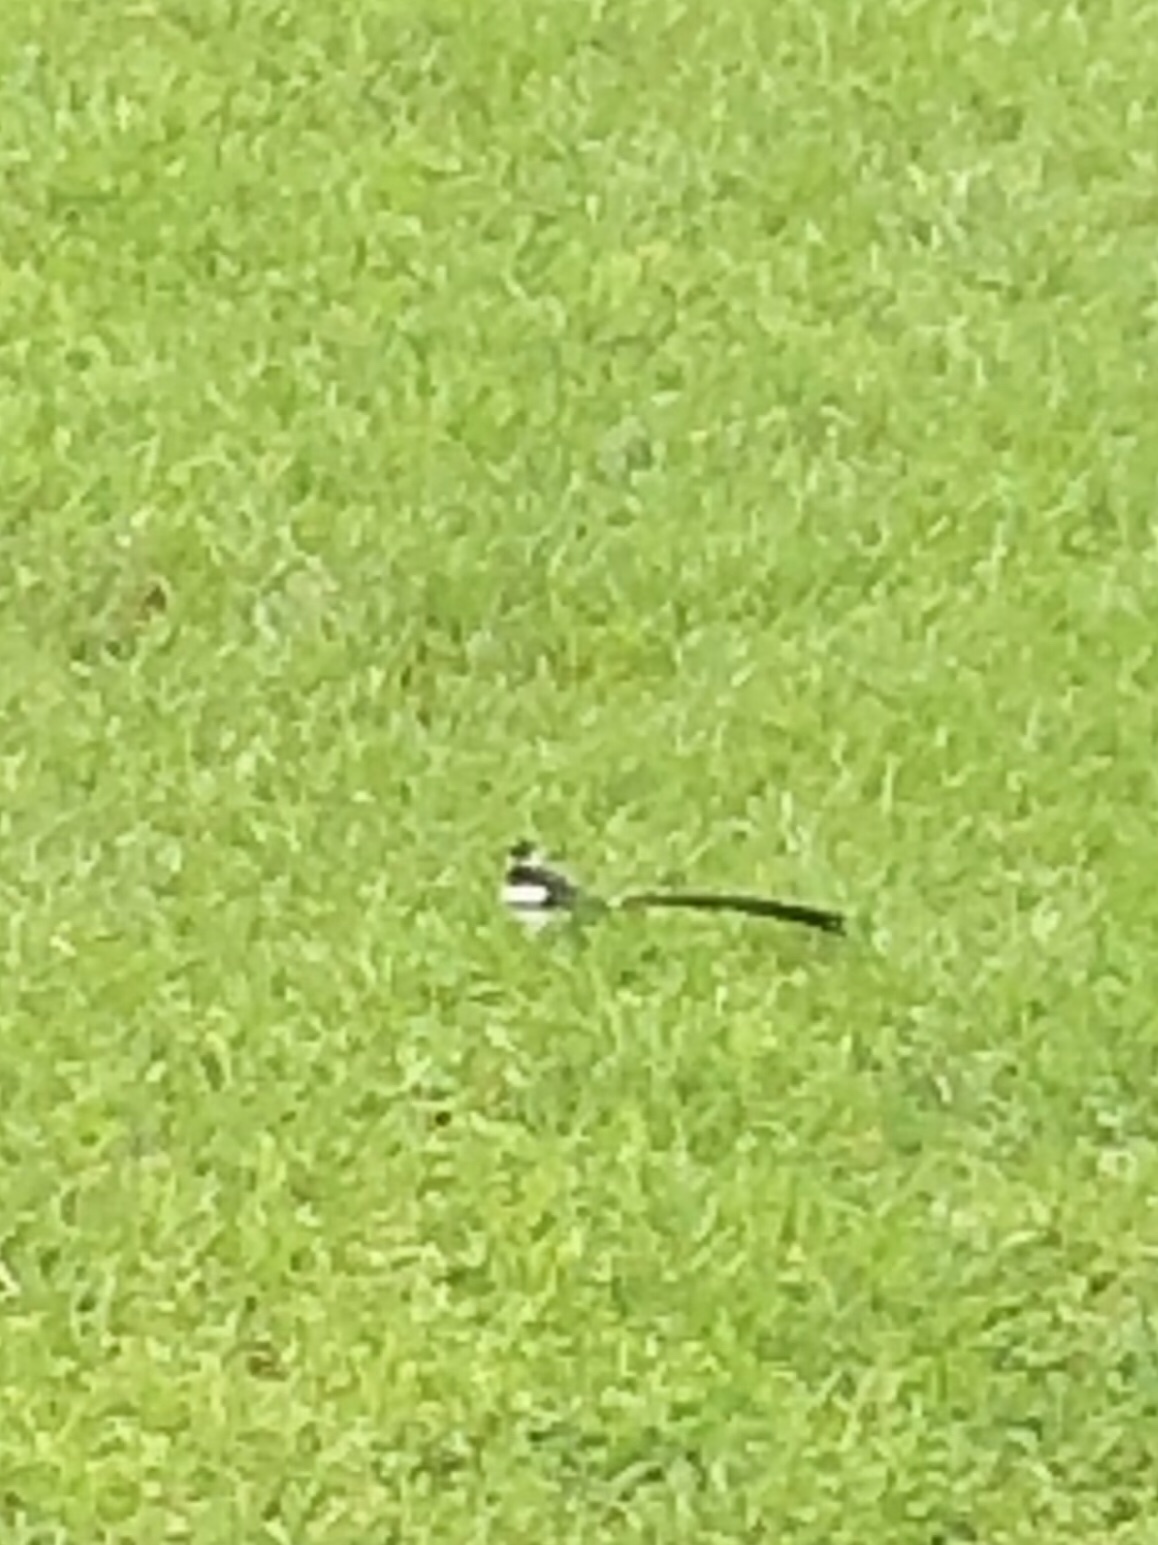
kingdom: Animalia
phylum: Chordata
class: Aves
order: Passeriformes
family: Viduidae
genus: Vidua
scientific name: Vidua macroura
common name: Pin-tailed whydah
